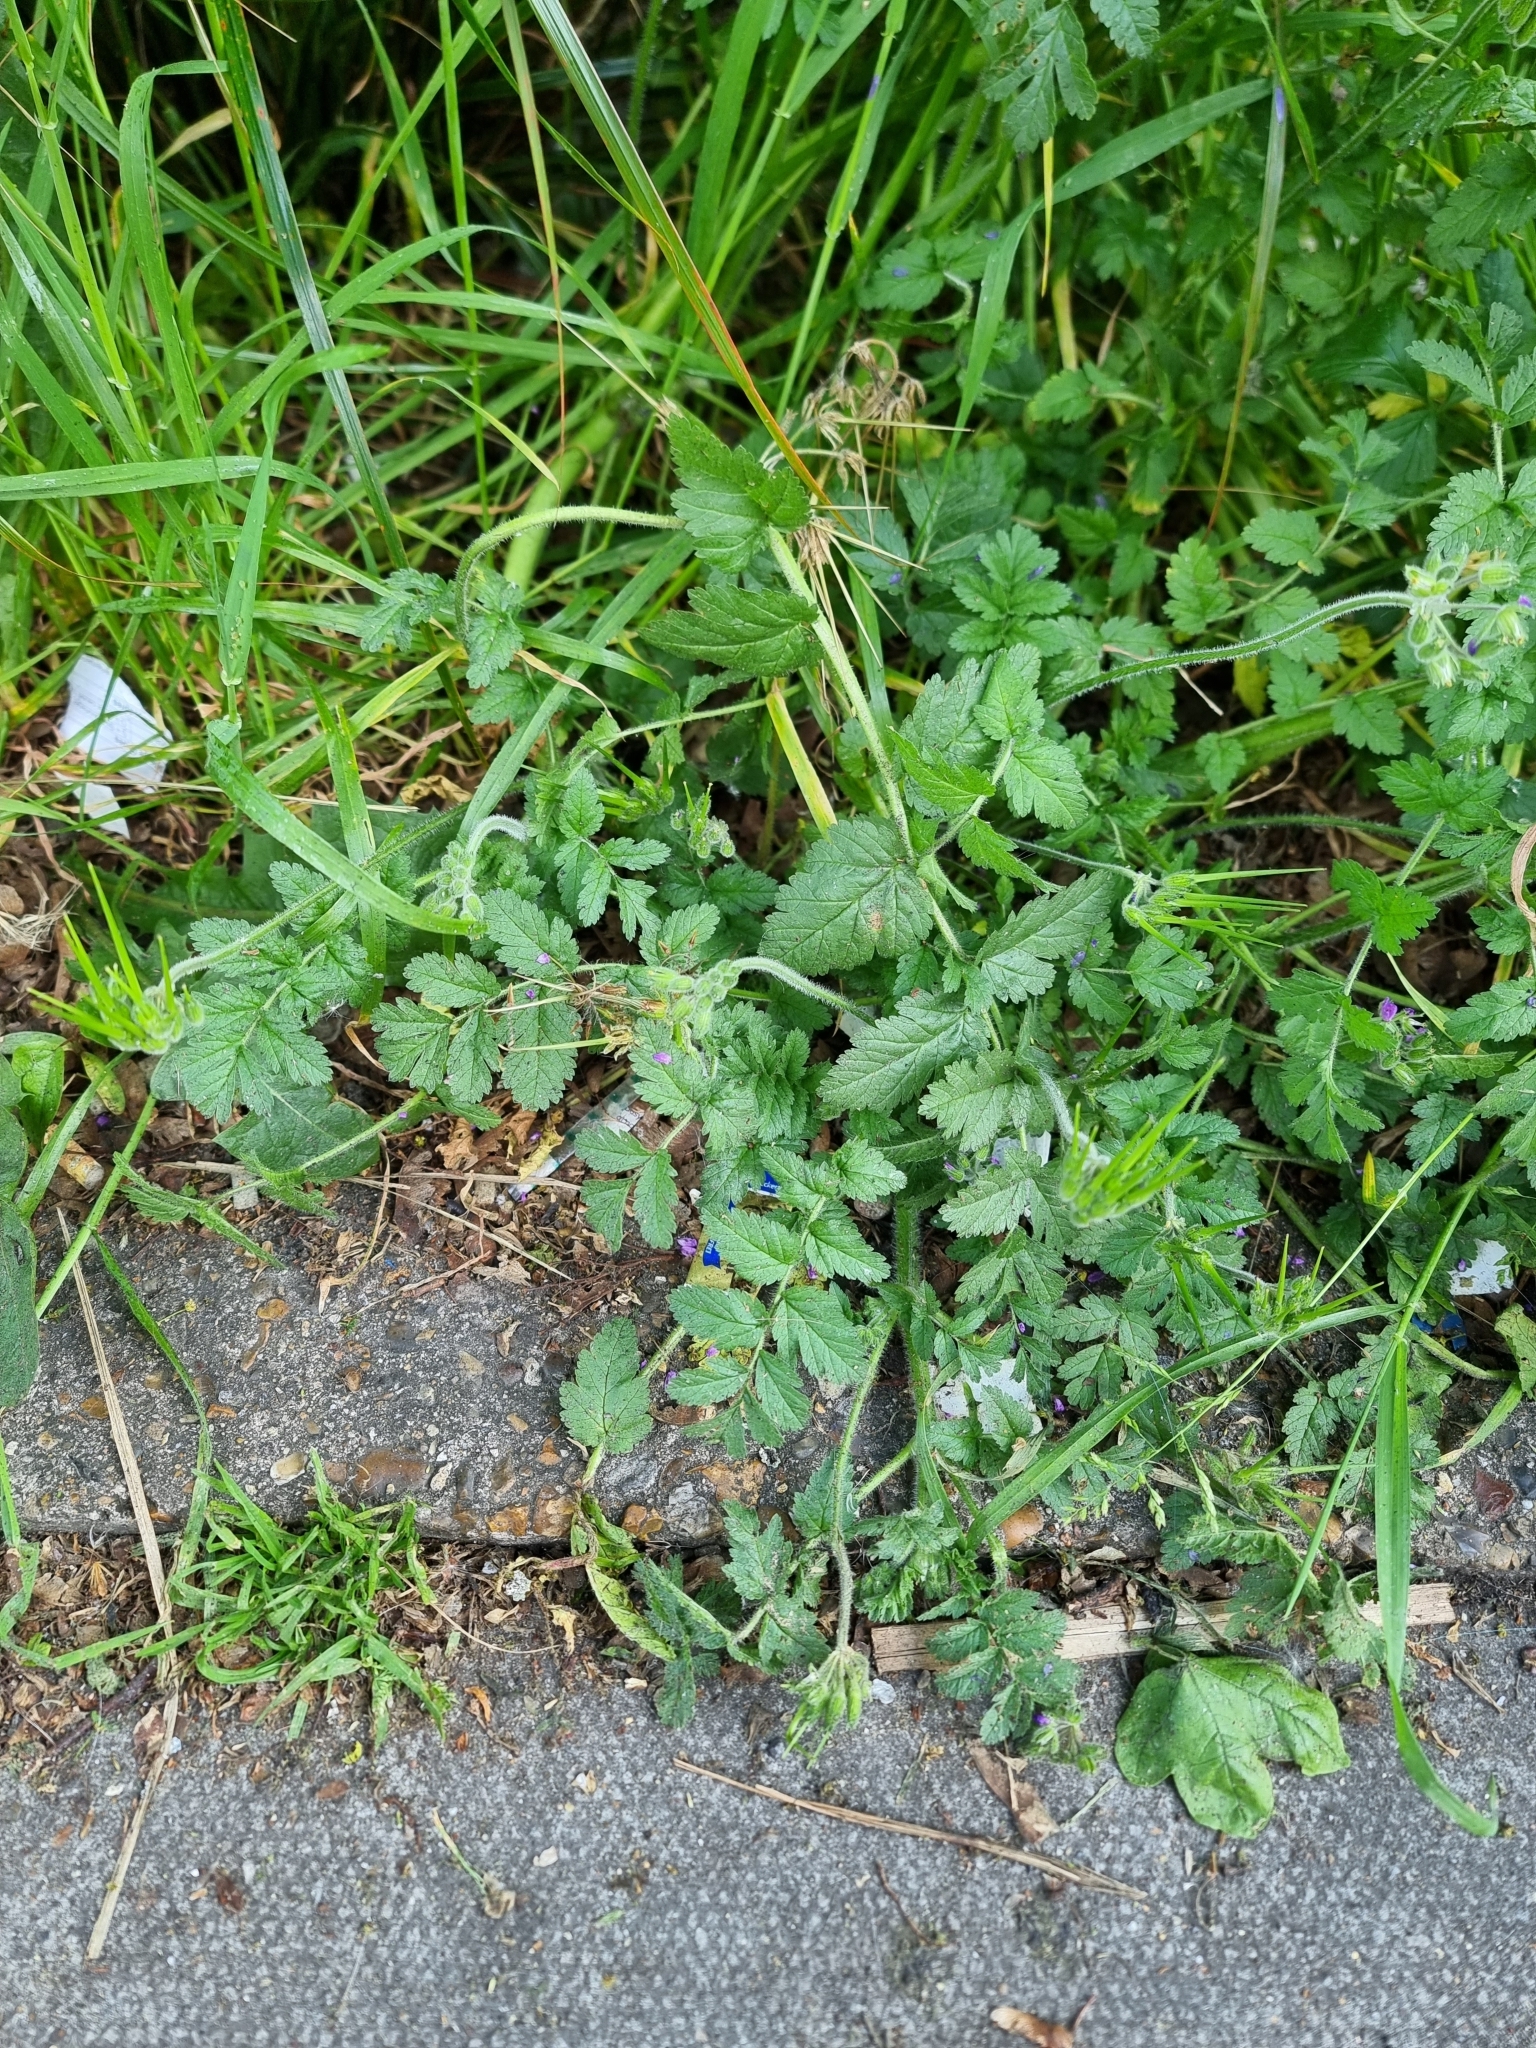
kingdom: Plantae
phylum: Tracheophyta
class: Magnoliopsida
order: Geraniales
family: Geraniaceae
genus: Erodium
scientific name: Erodium moschatum
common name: Musk stork's-bill
